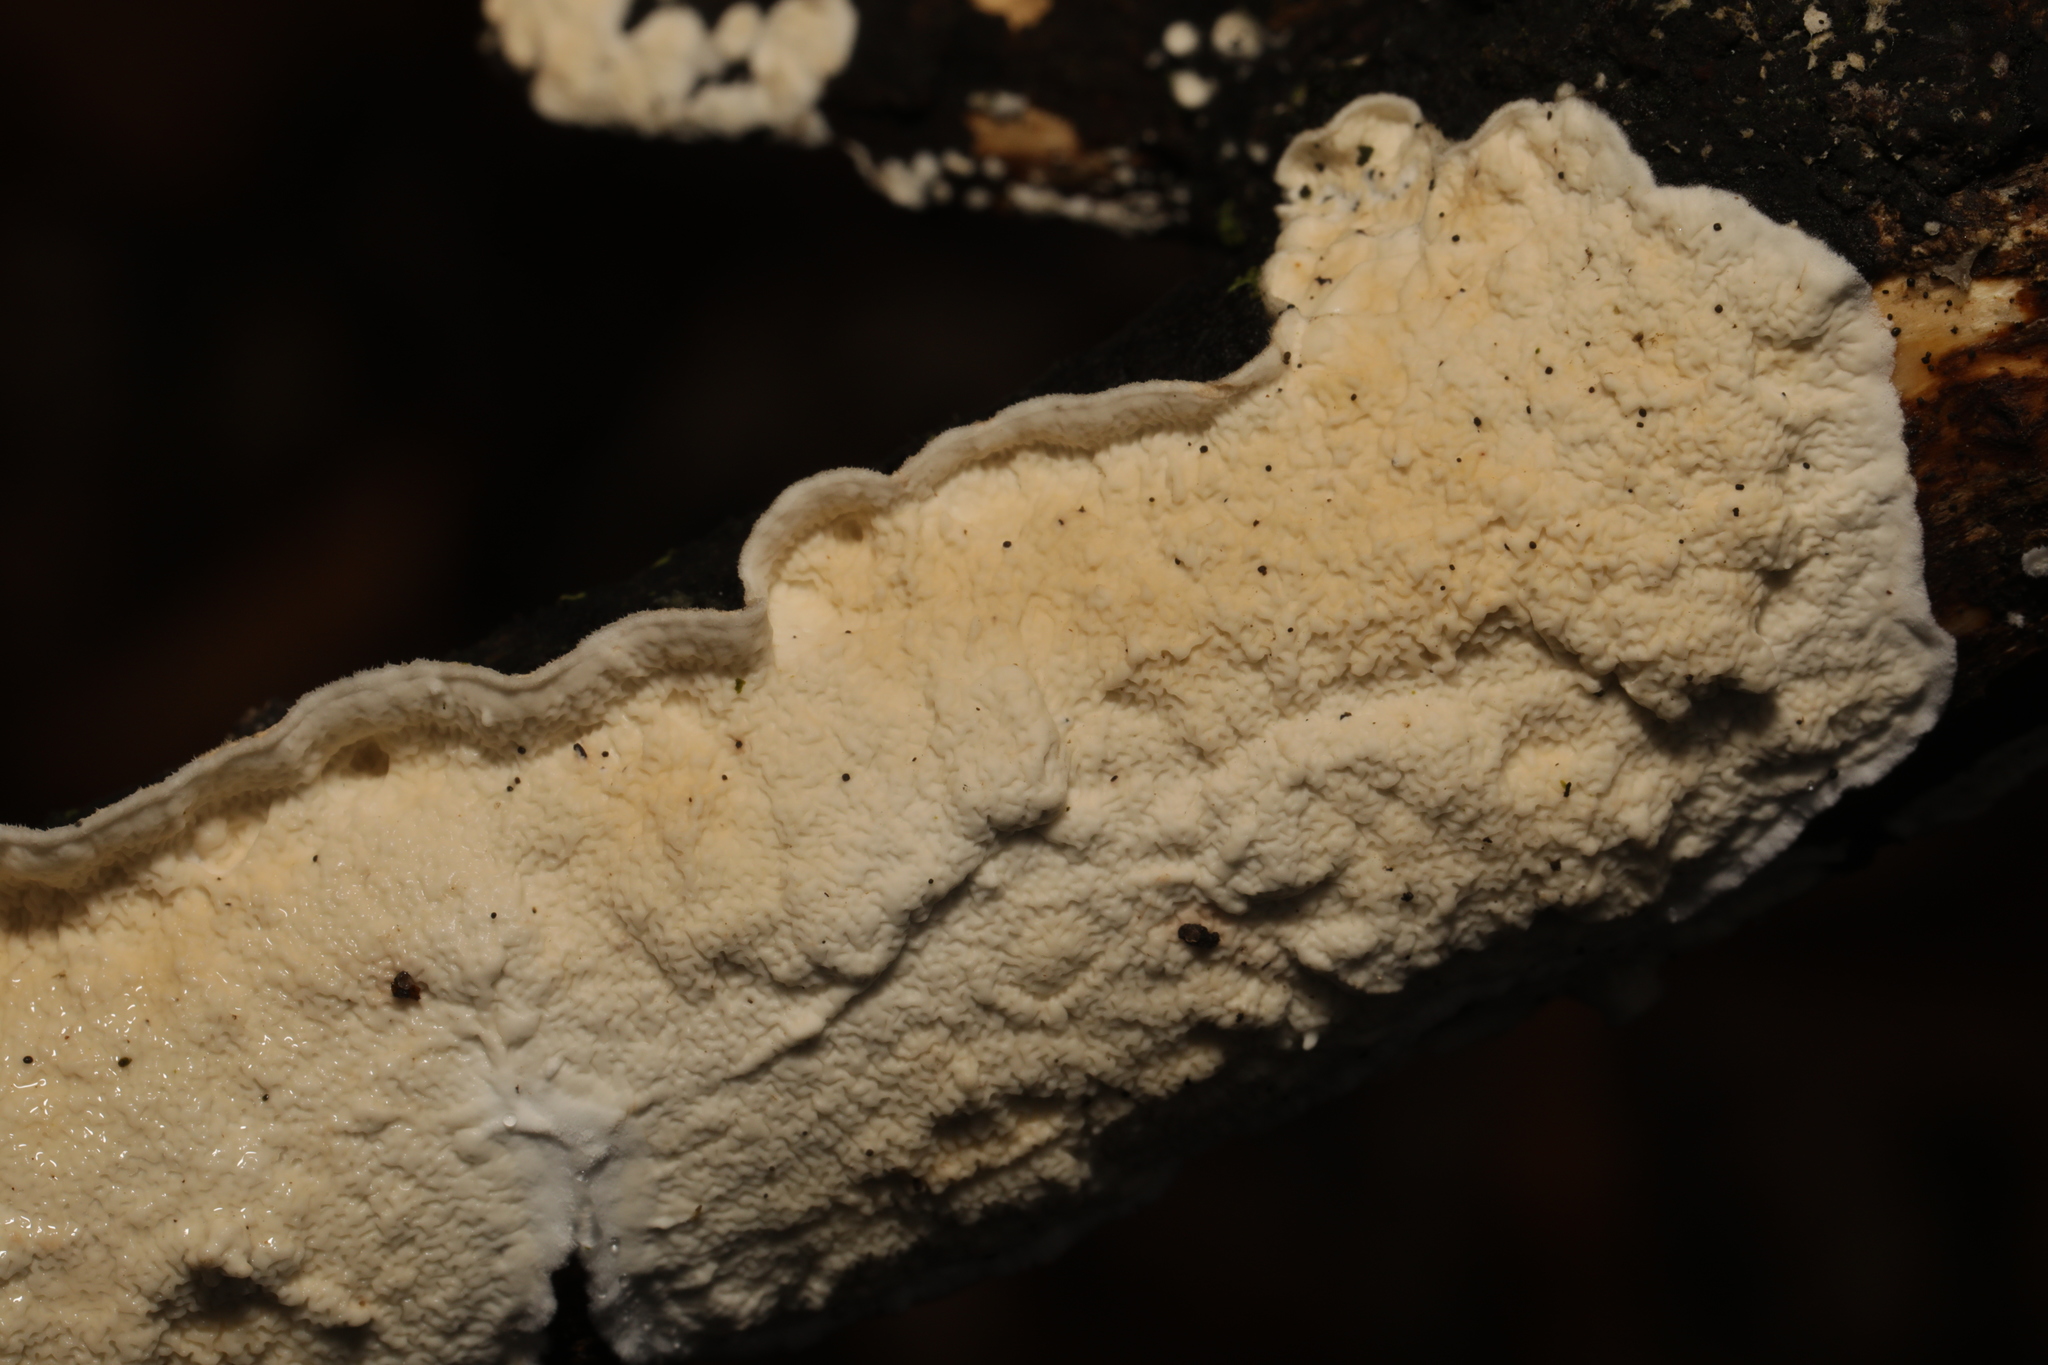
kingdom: Fungi
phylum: Basidiomycota
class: Agaricomycetes
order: Polyporales
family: Irpicaceae
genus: Byssomerulius
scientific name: Byssomerulius corium
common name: Netted crust
